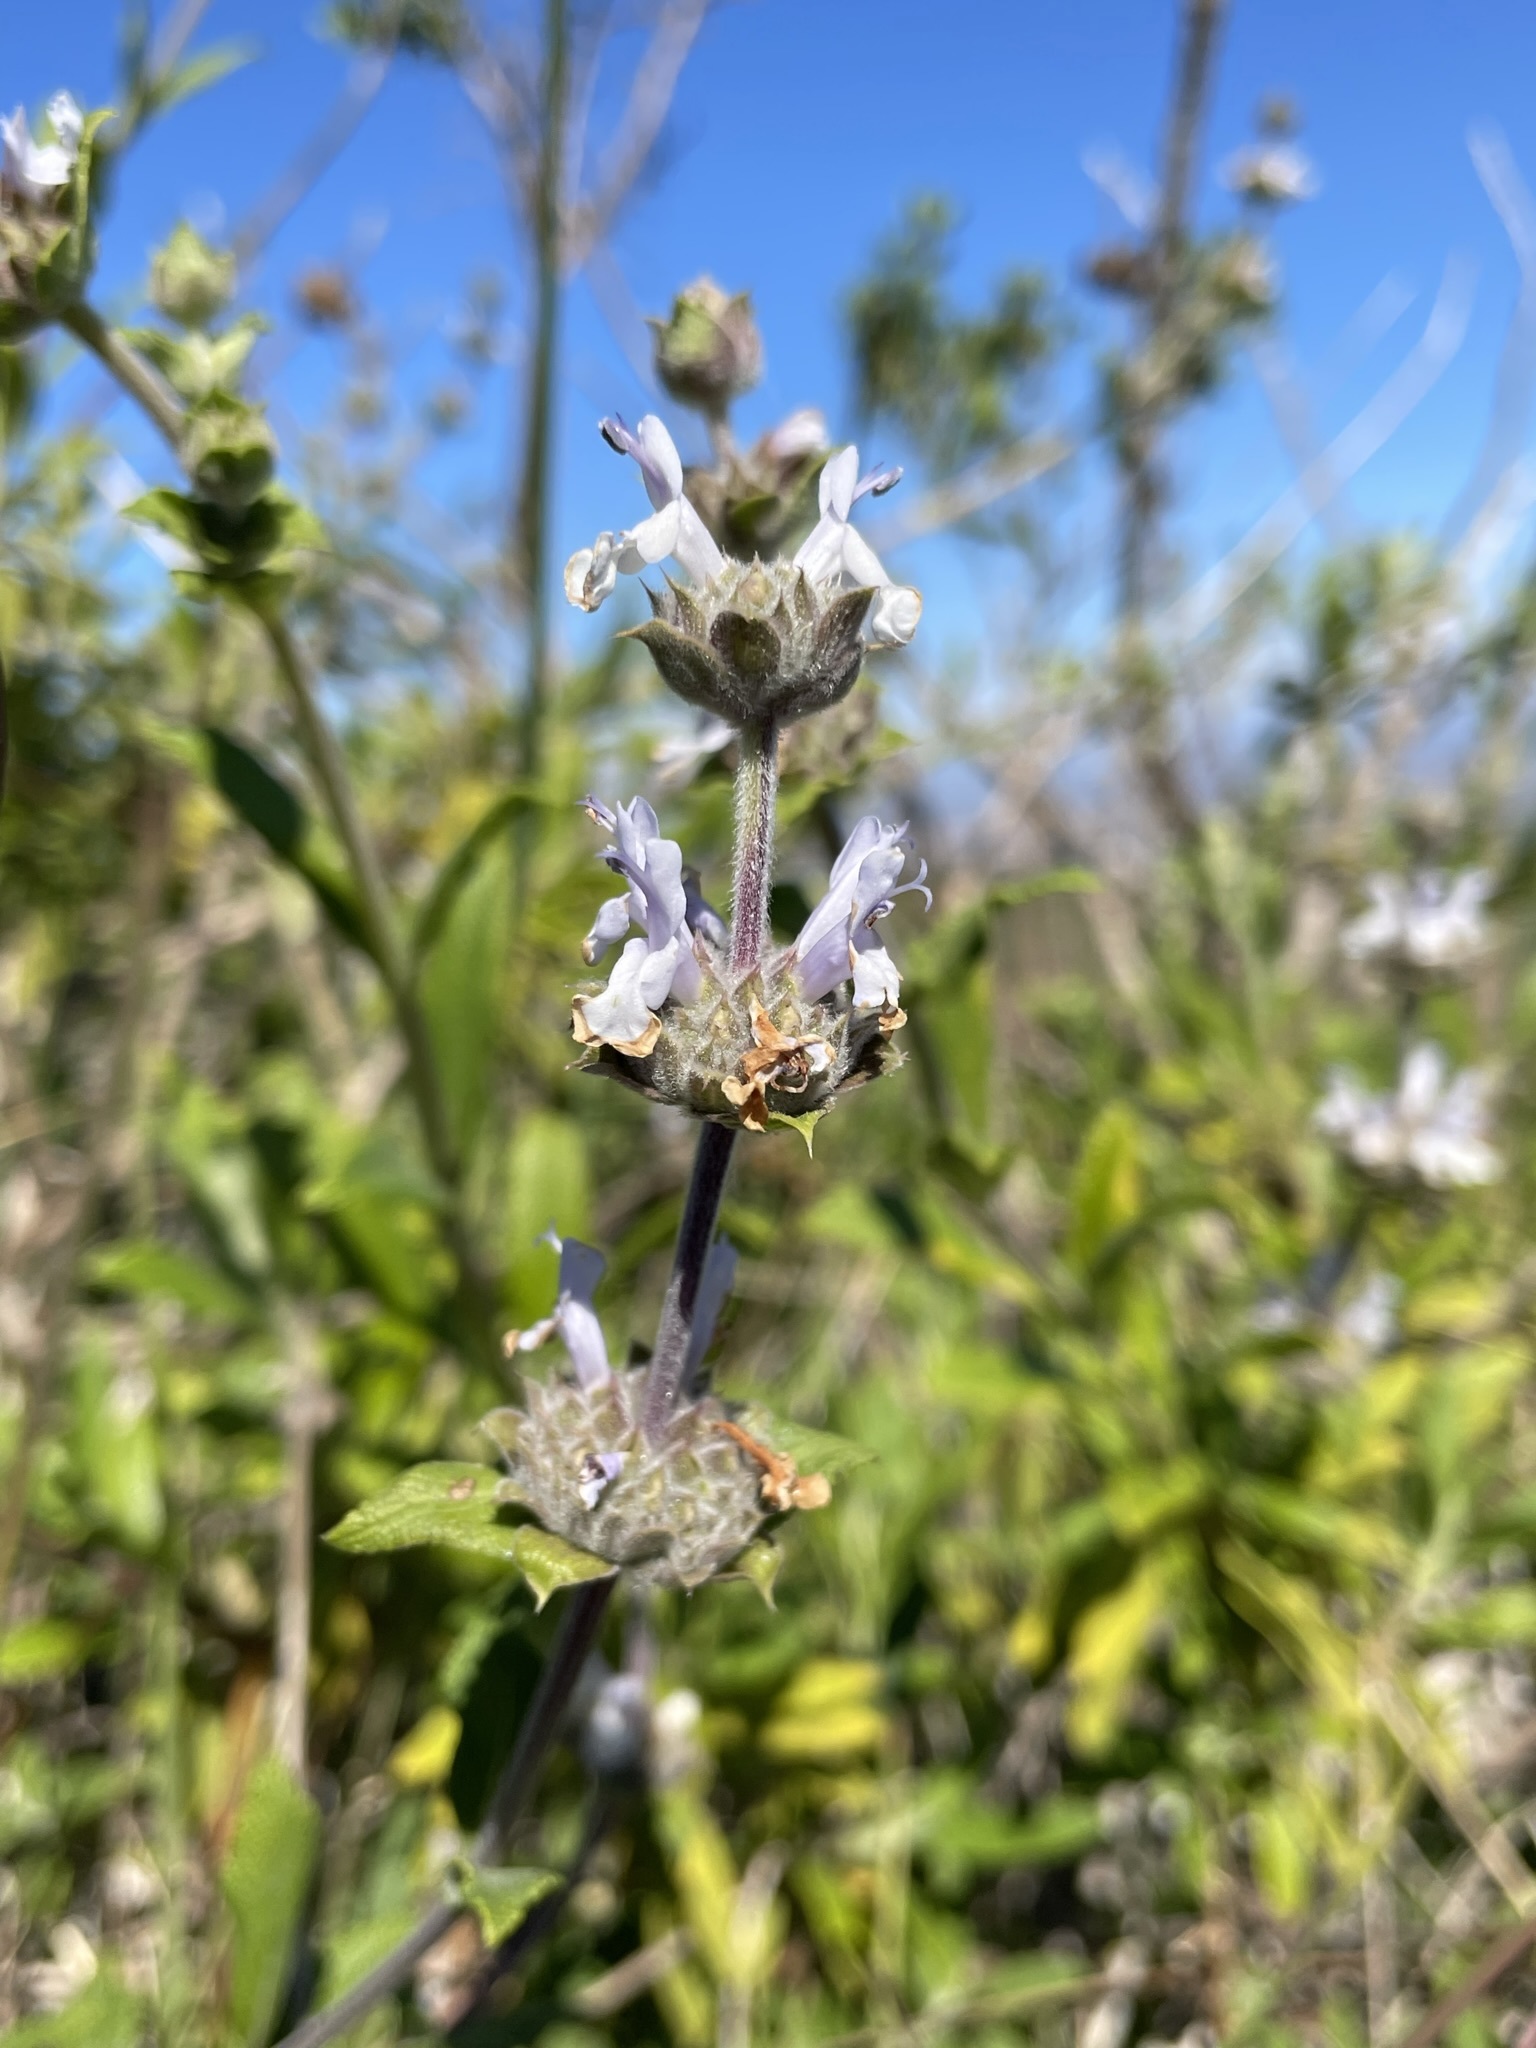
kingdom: Plantae
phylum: Tracheophyta
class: Magnoliopsida
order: Lamiales
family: Lamiaceae
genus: Salvia
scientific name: Salvia mellifera
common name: Black sage
